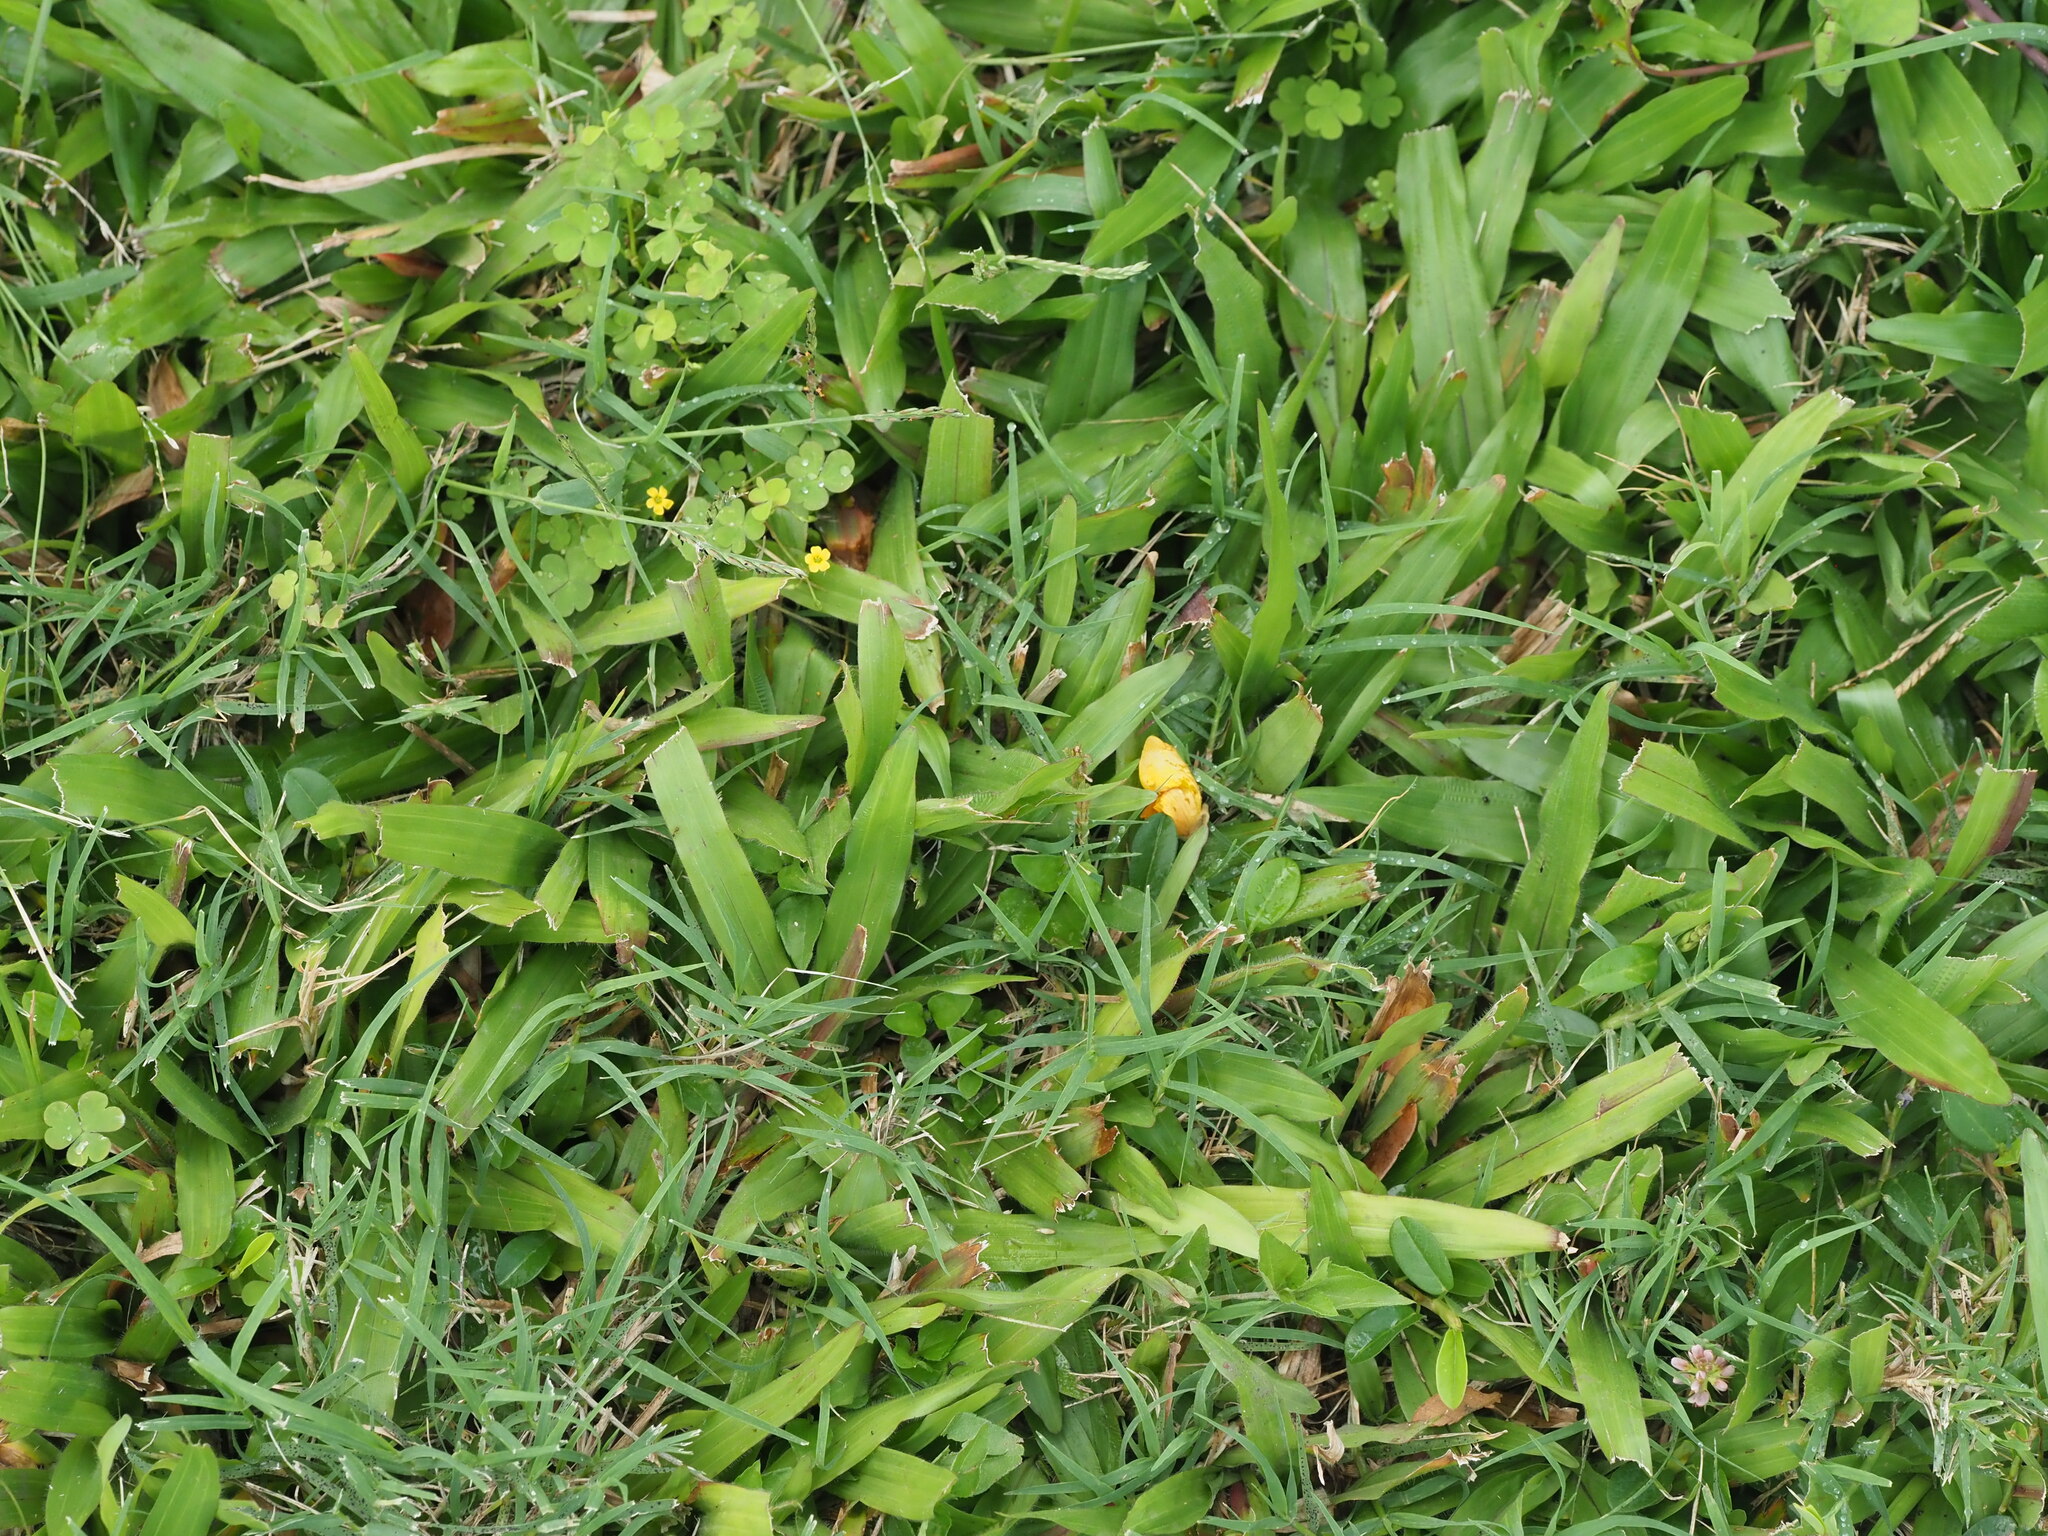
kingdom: Plantae
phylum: Tracheophyta
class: Liliopsida
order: Poales
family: Poaceae
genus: Axonopus
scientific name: Axonopus compressus
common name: American carpet grass
